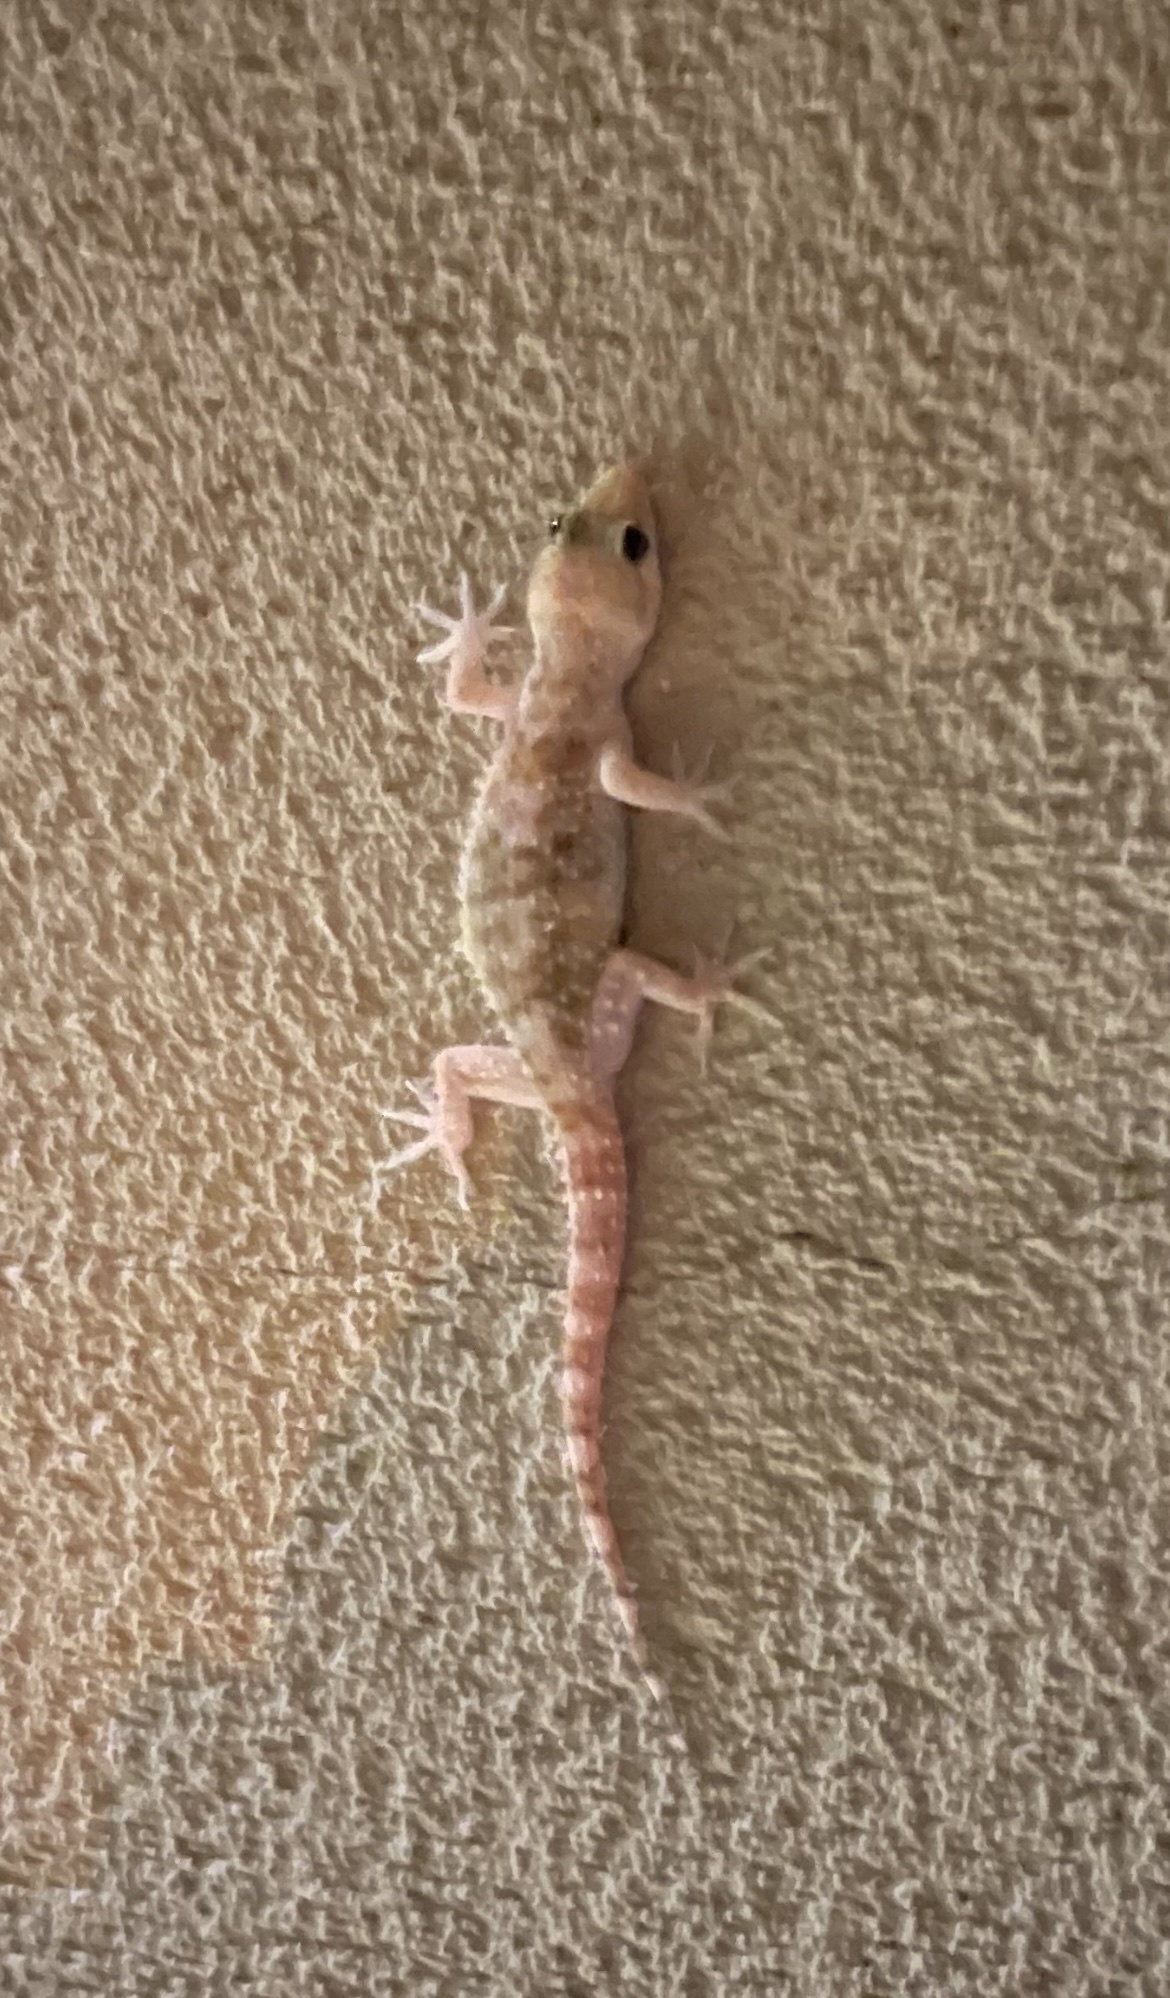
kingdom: Animalia
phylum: Chordata
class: Squamata
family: Gekkonidae
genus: Hemidactylus
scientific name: Hemidactylus turcicus
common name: Turkish gecko
